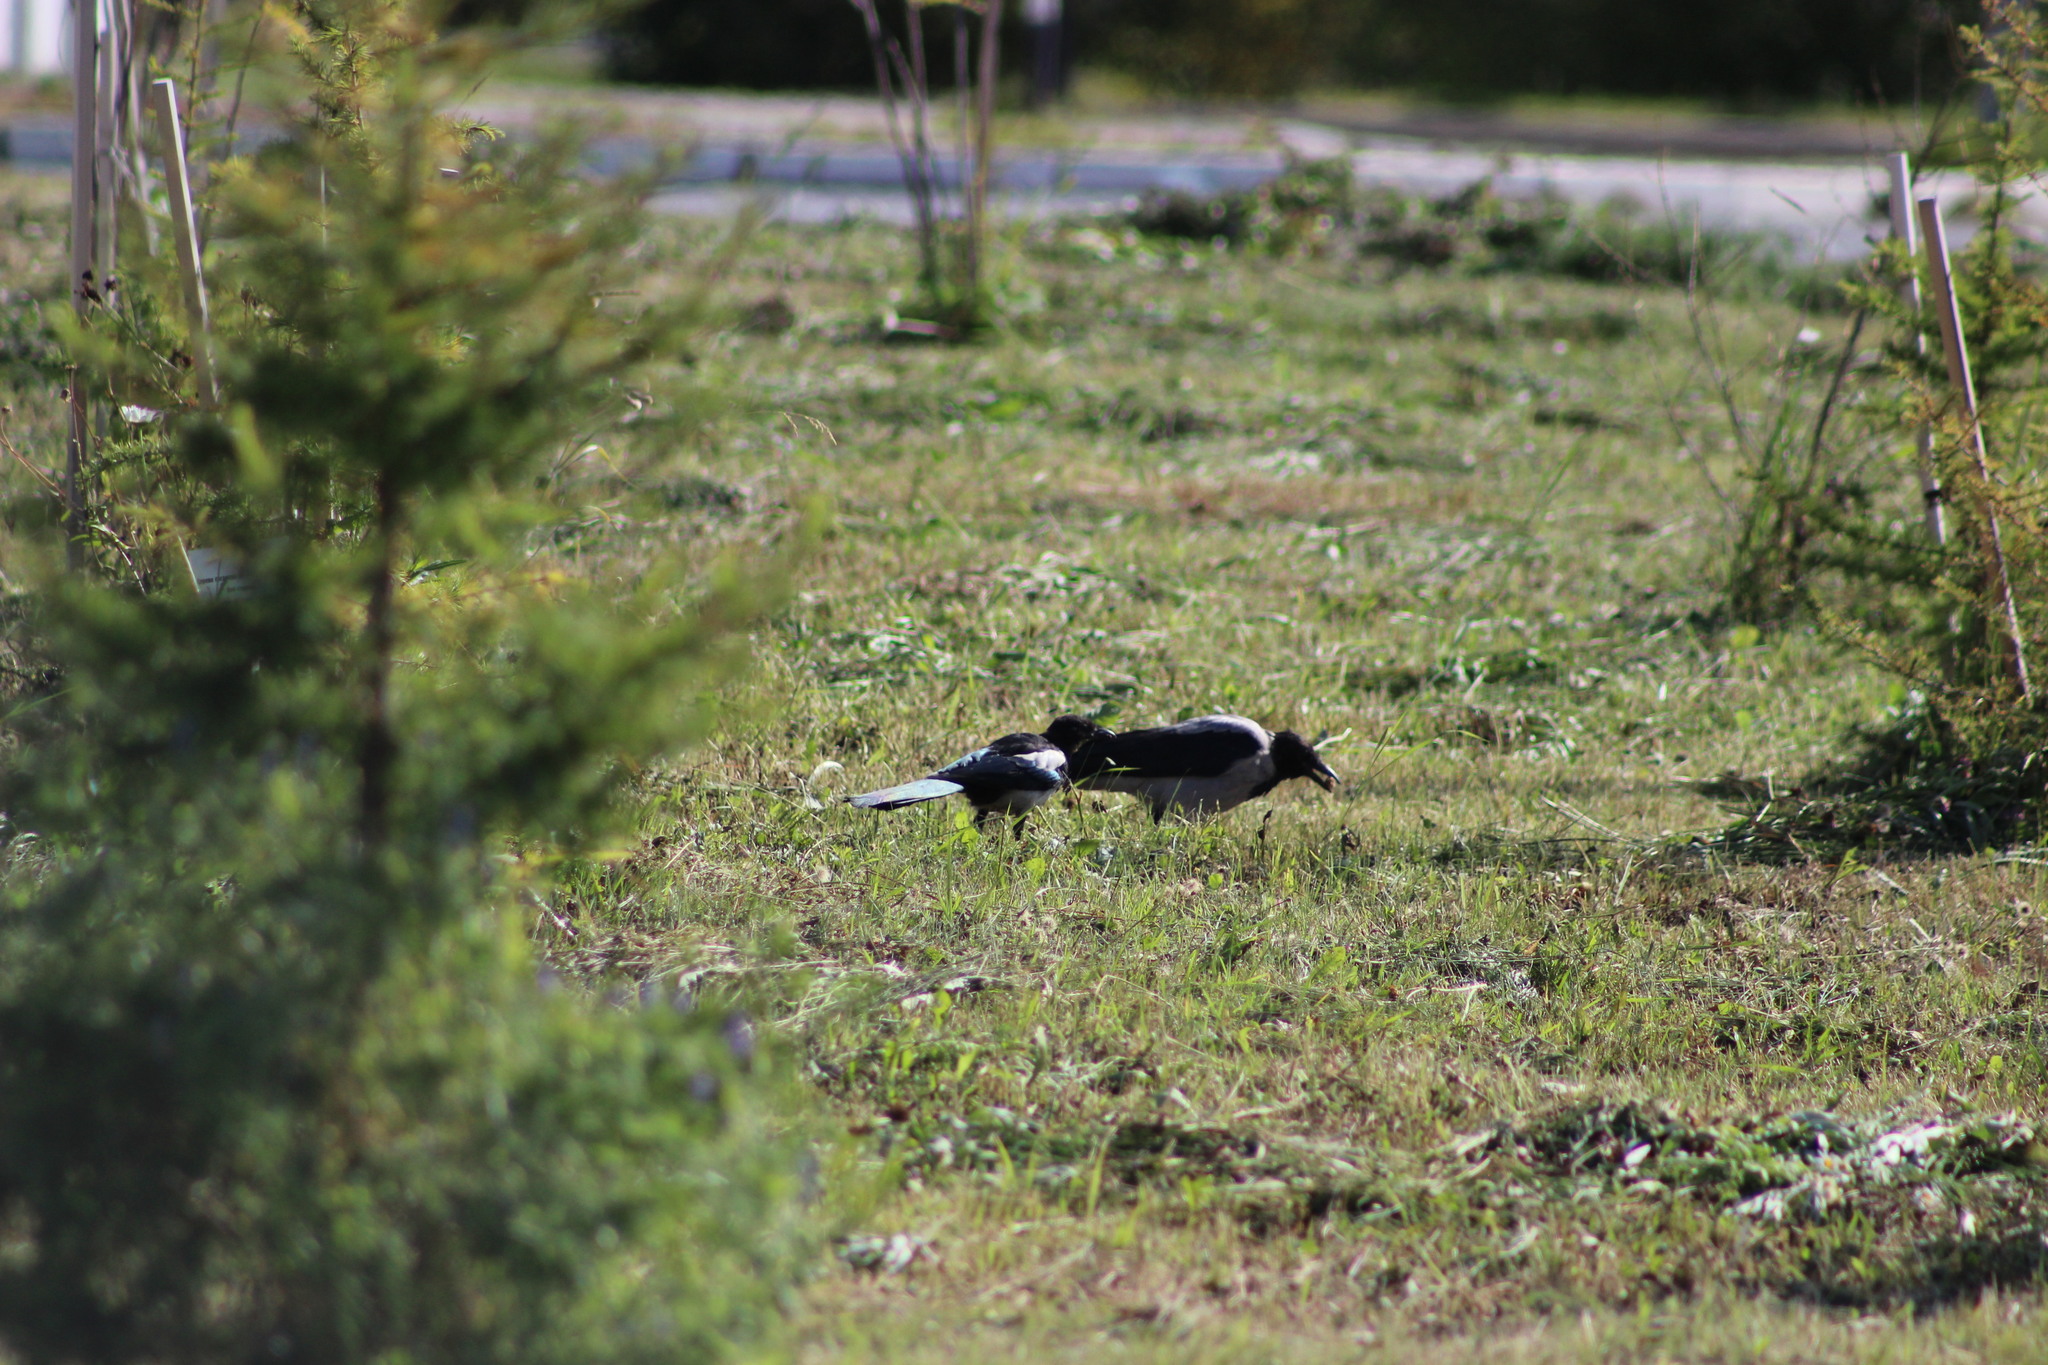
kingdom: Animalia
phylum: Chordata
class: Aves
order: Passeriformes
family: Corvidae
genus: Corvus
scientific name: Corvus cornix
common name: Hooded crow
